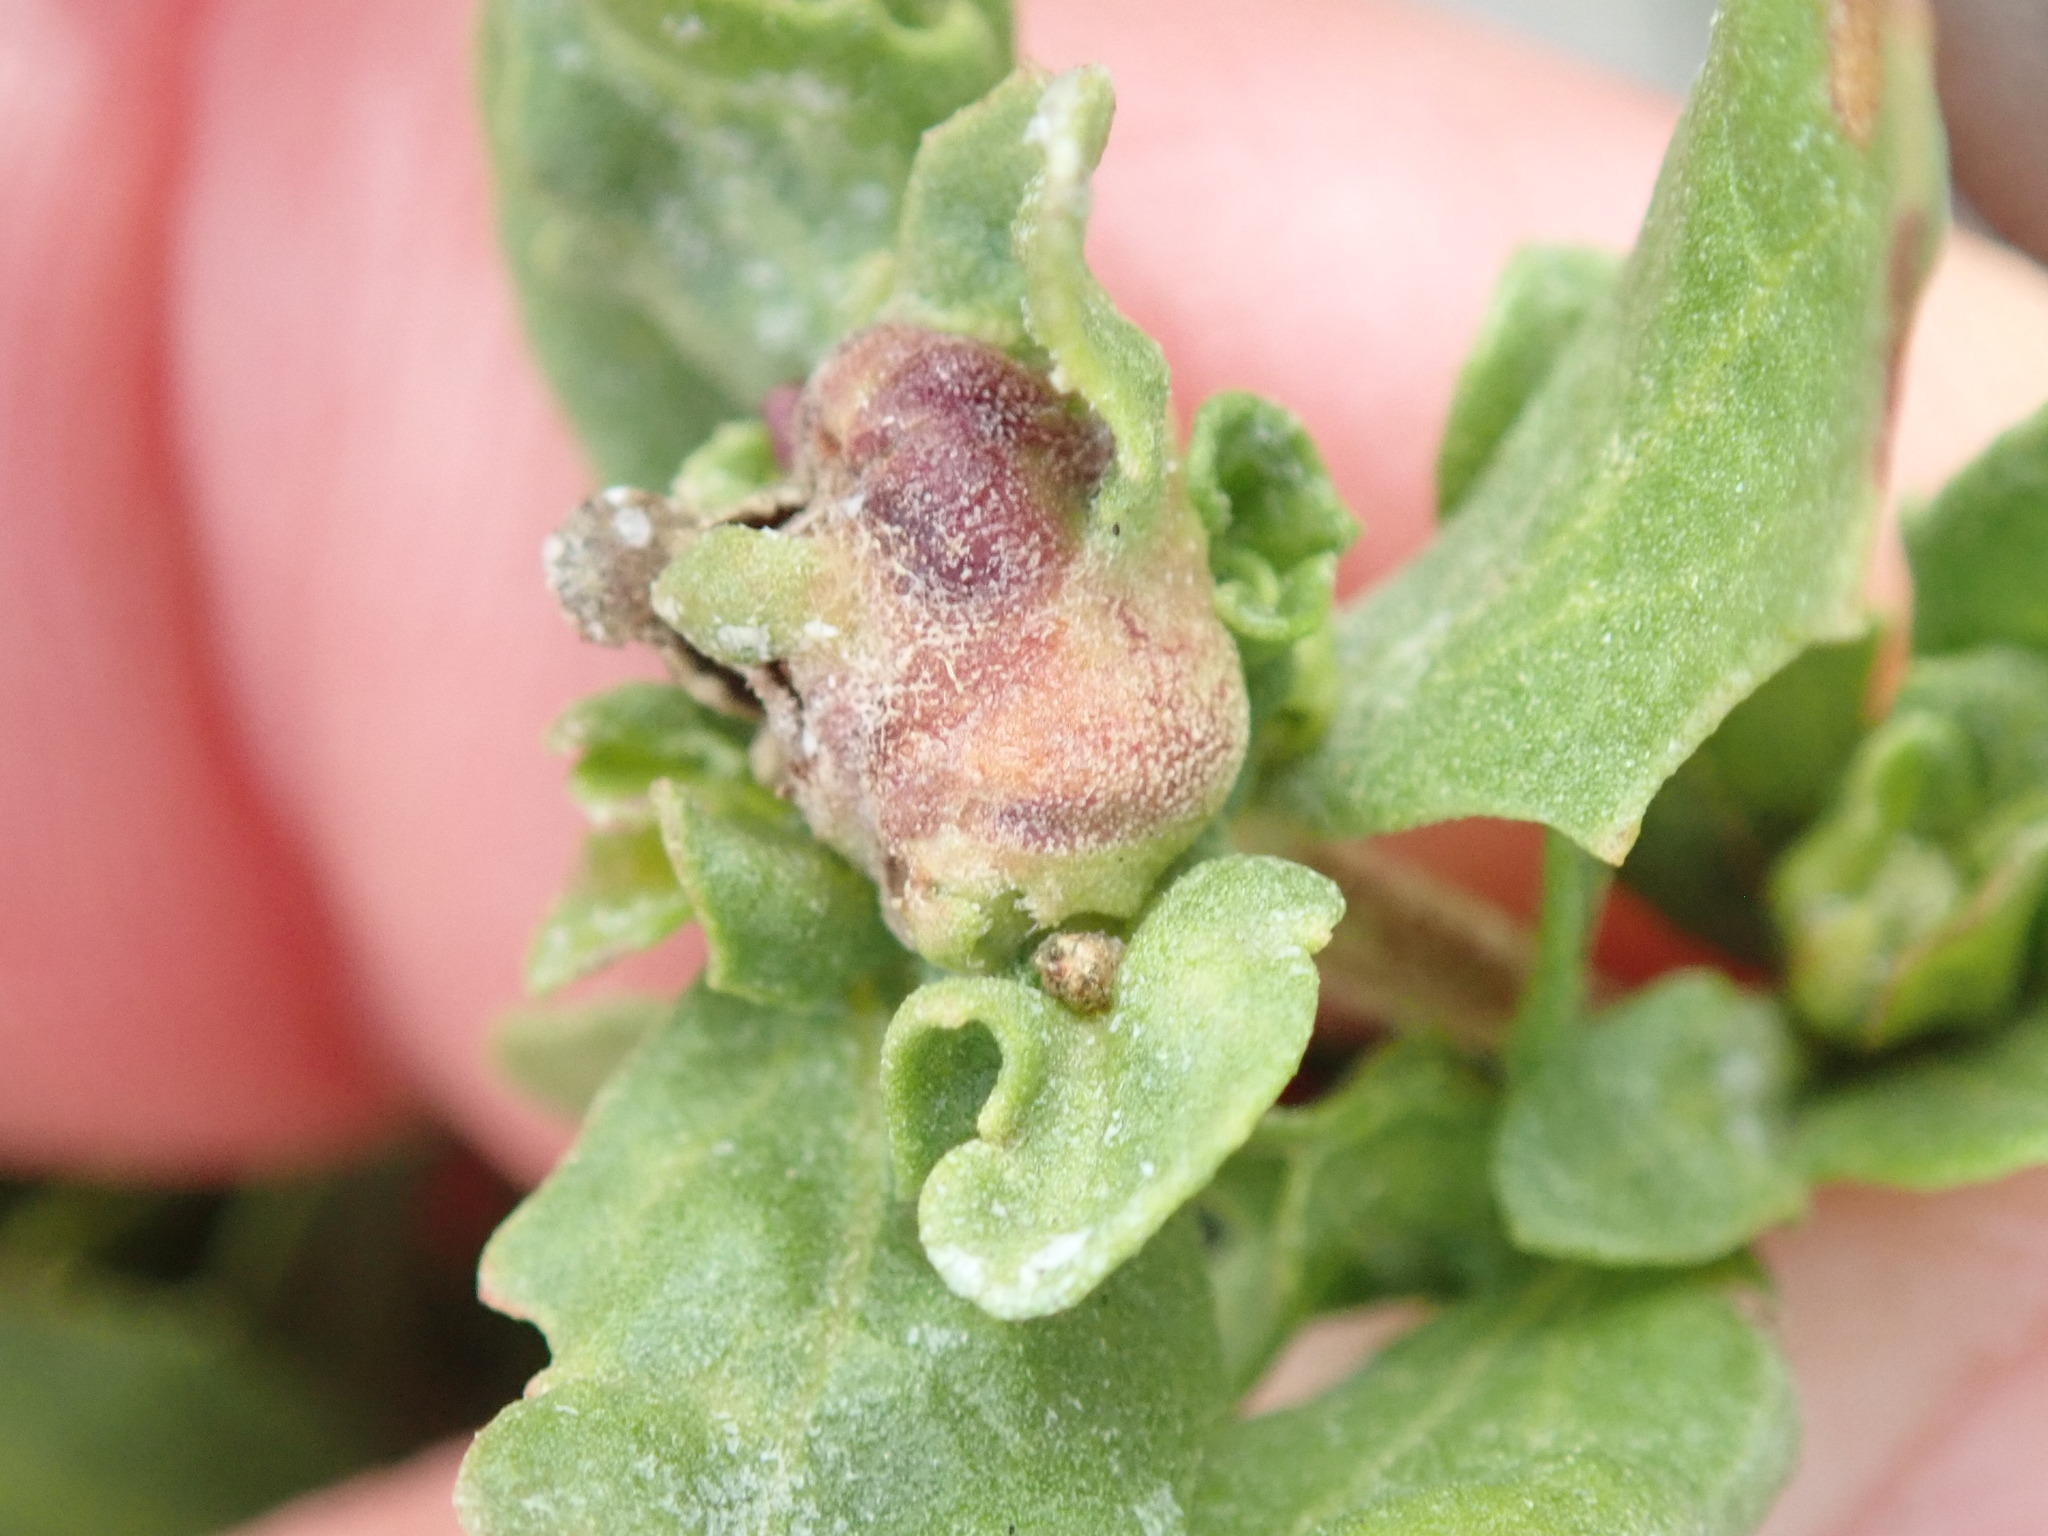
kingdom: Animalia
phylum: Arthropoda
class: Insecta
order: Diptera
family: Cecidomyiidae
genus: Rhopalomyia
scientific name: Rhopalomyia californica
